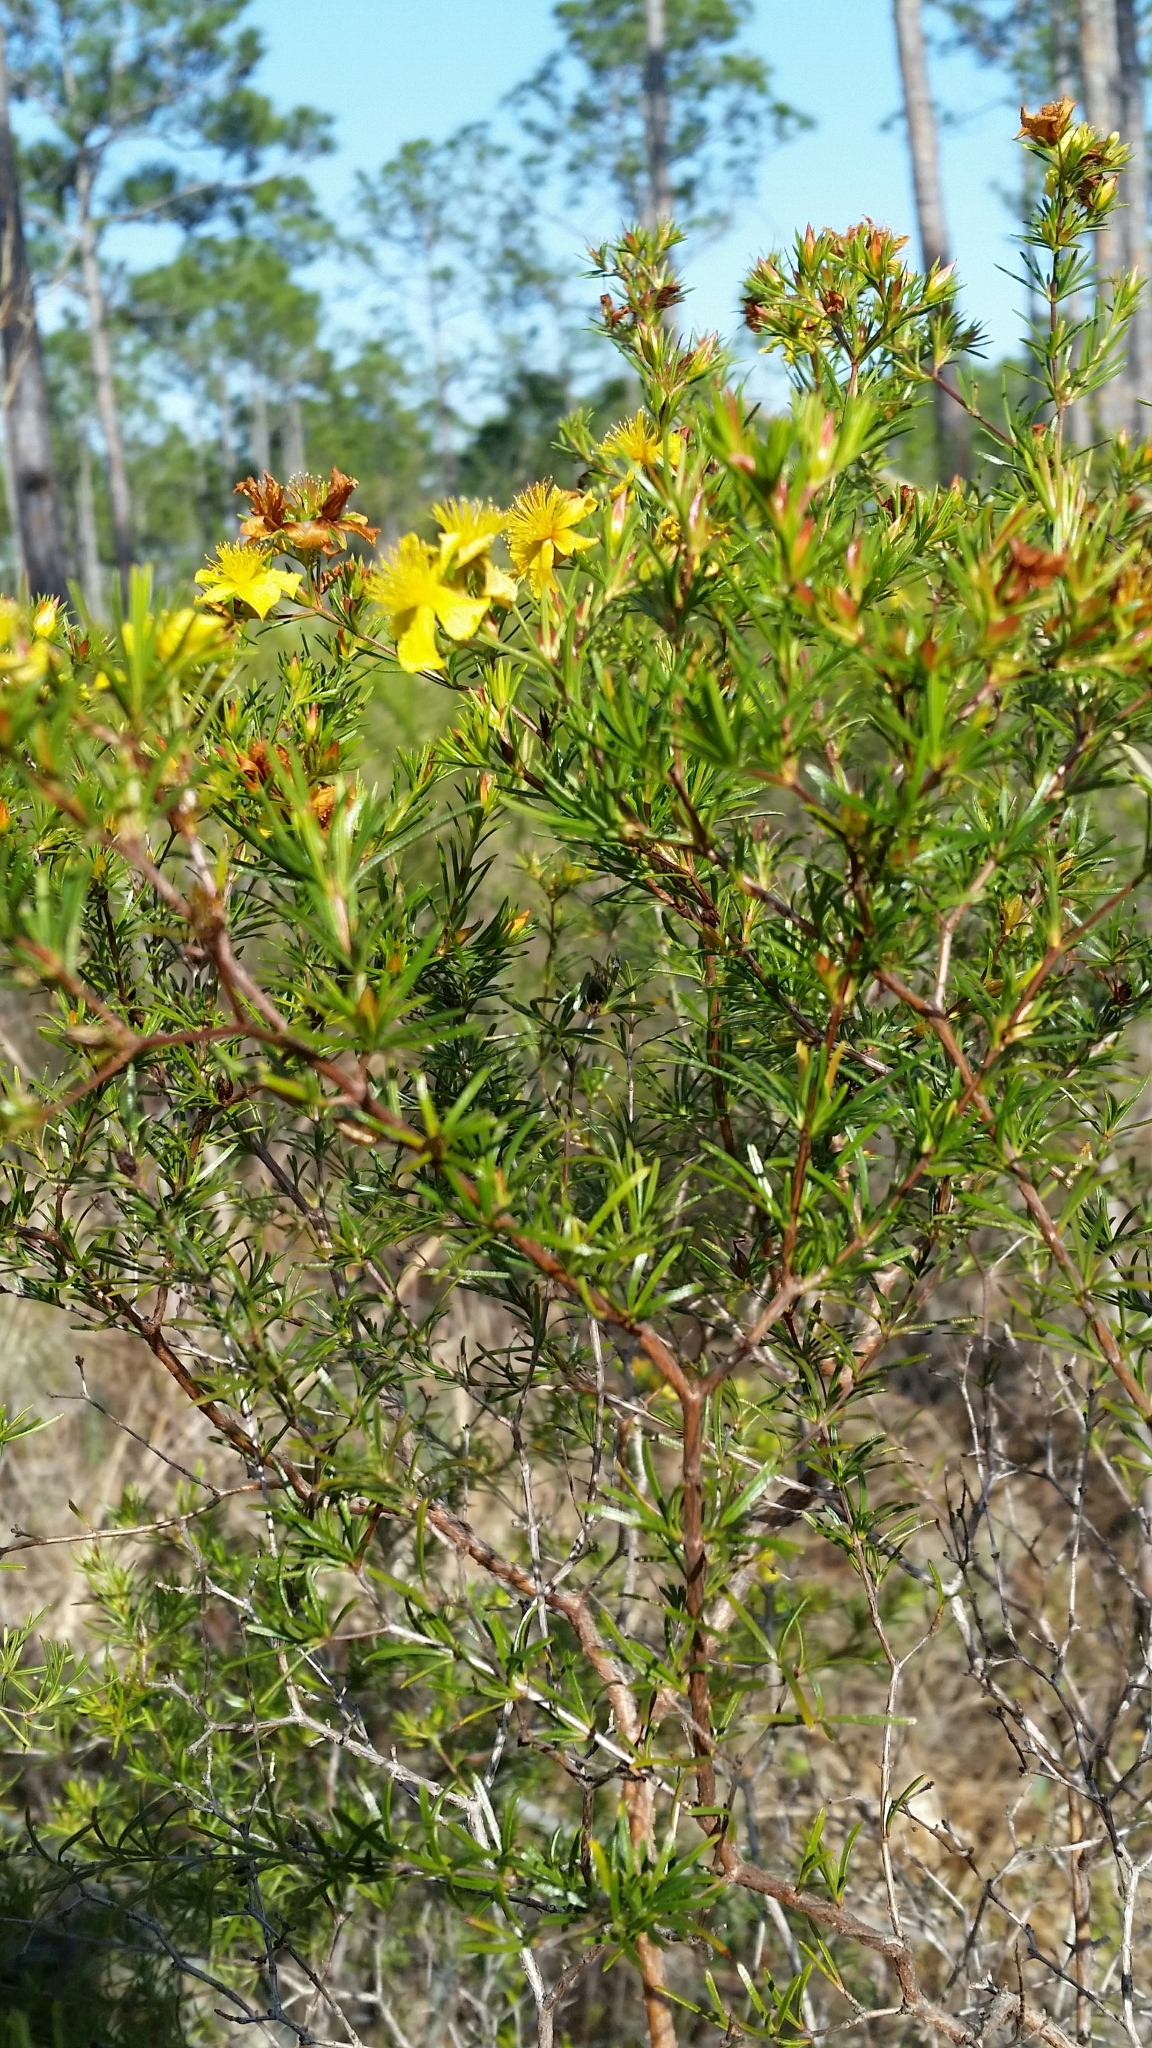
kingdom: Plantae
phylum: Tracheophyta
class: Magnoliopsida
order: Malpighiales
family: Hypericaceae
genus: Hypericum
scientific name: Hypericum fasciculatum
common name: Peelbark st. john's wort
